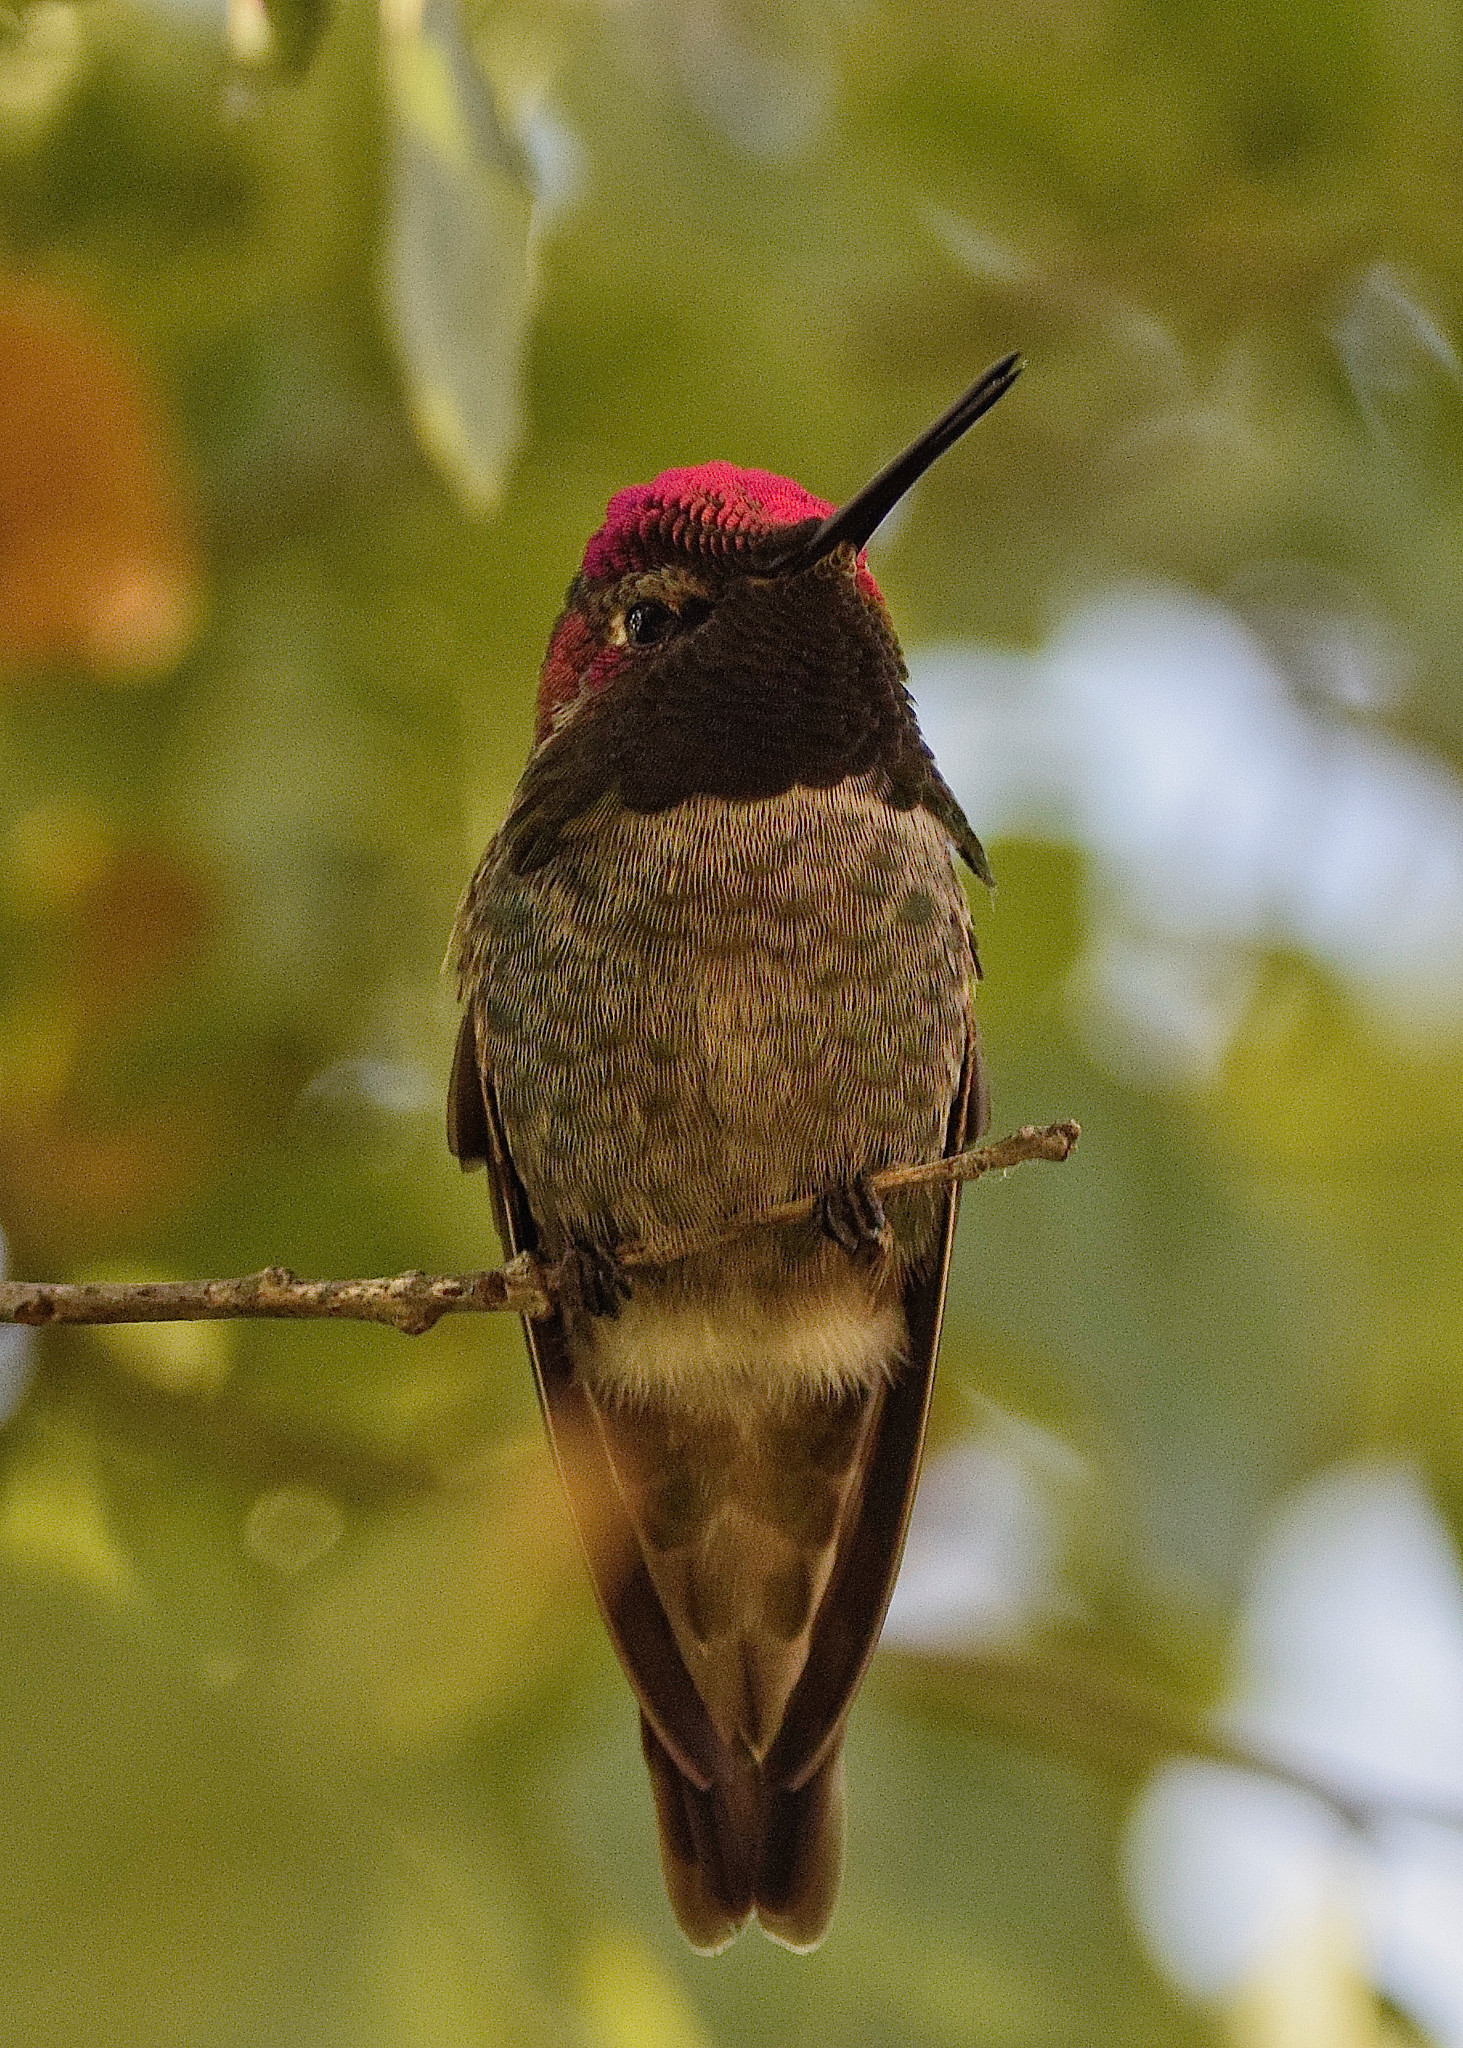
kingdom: Animalia
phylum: Chordata
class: Aves
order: Apodiformes
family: Trochilidae
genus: Calypte
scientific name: Calypte anna
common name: Anna's hummingbird
